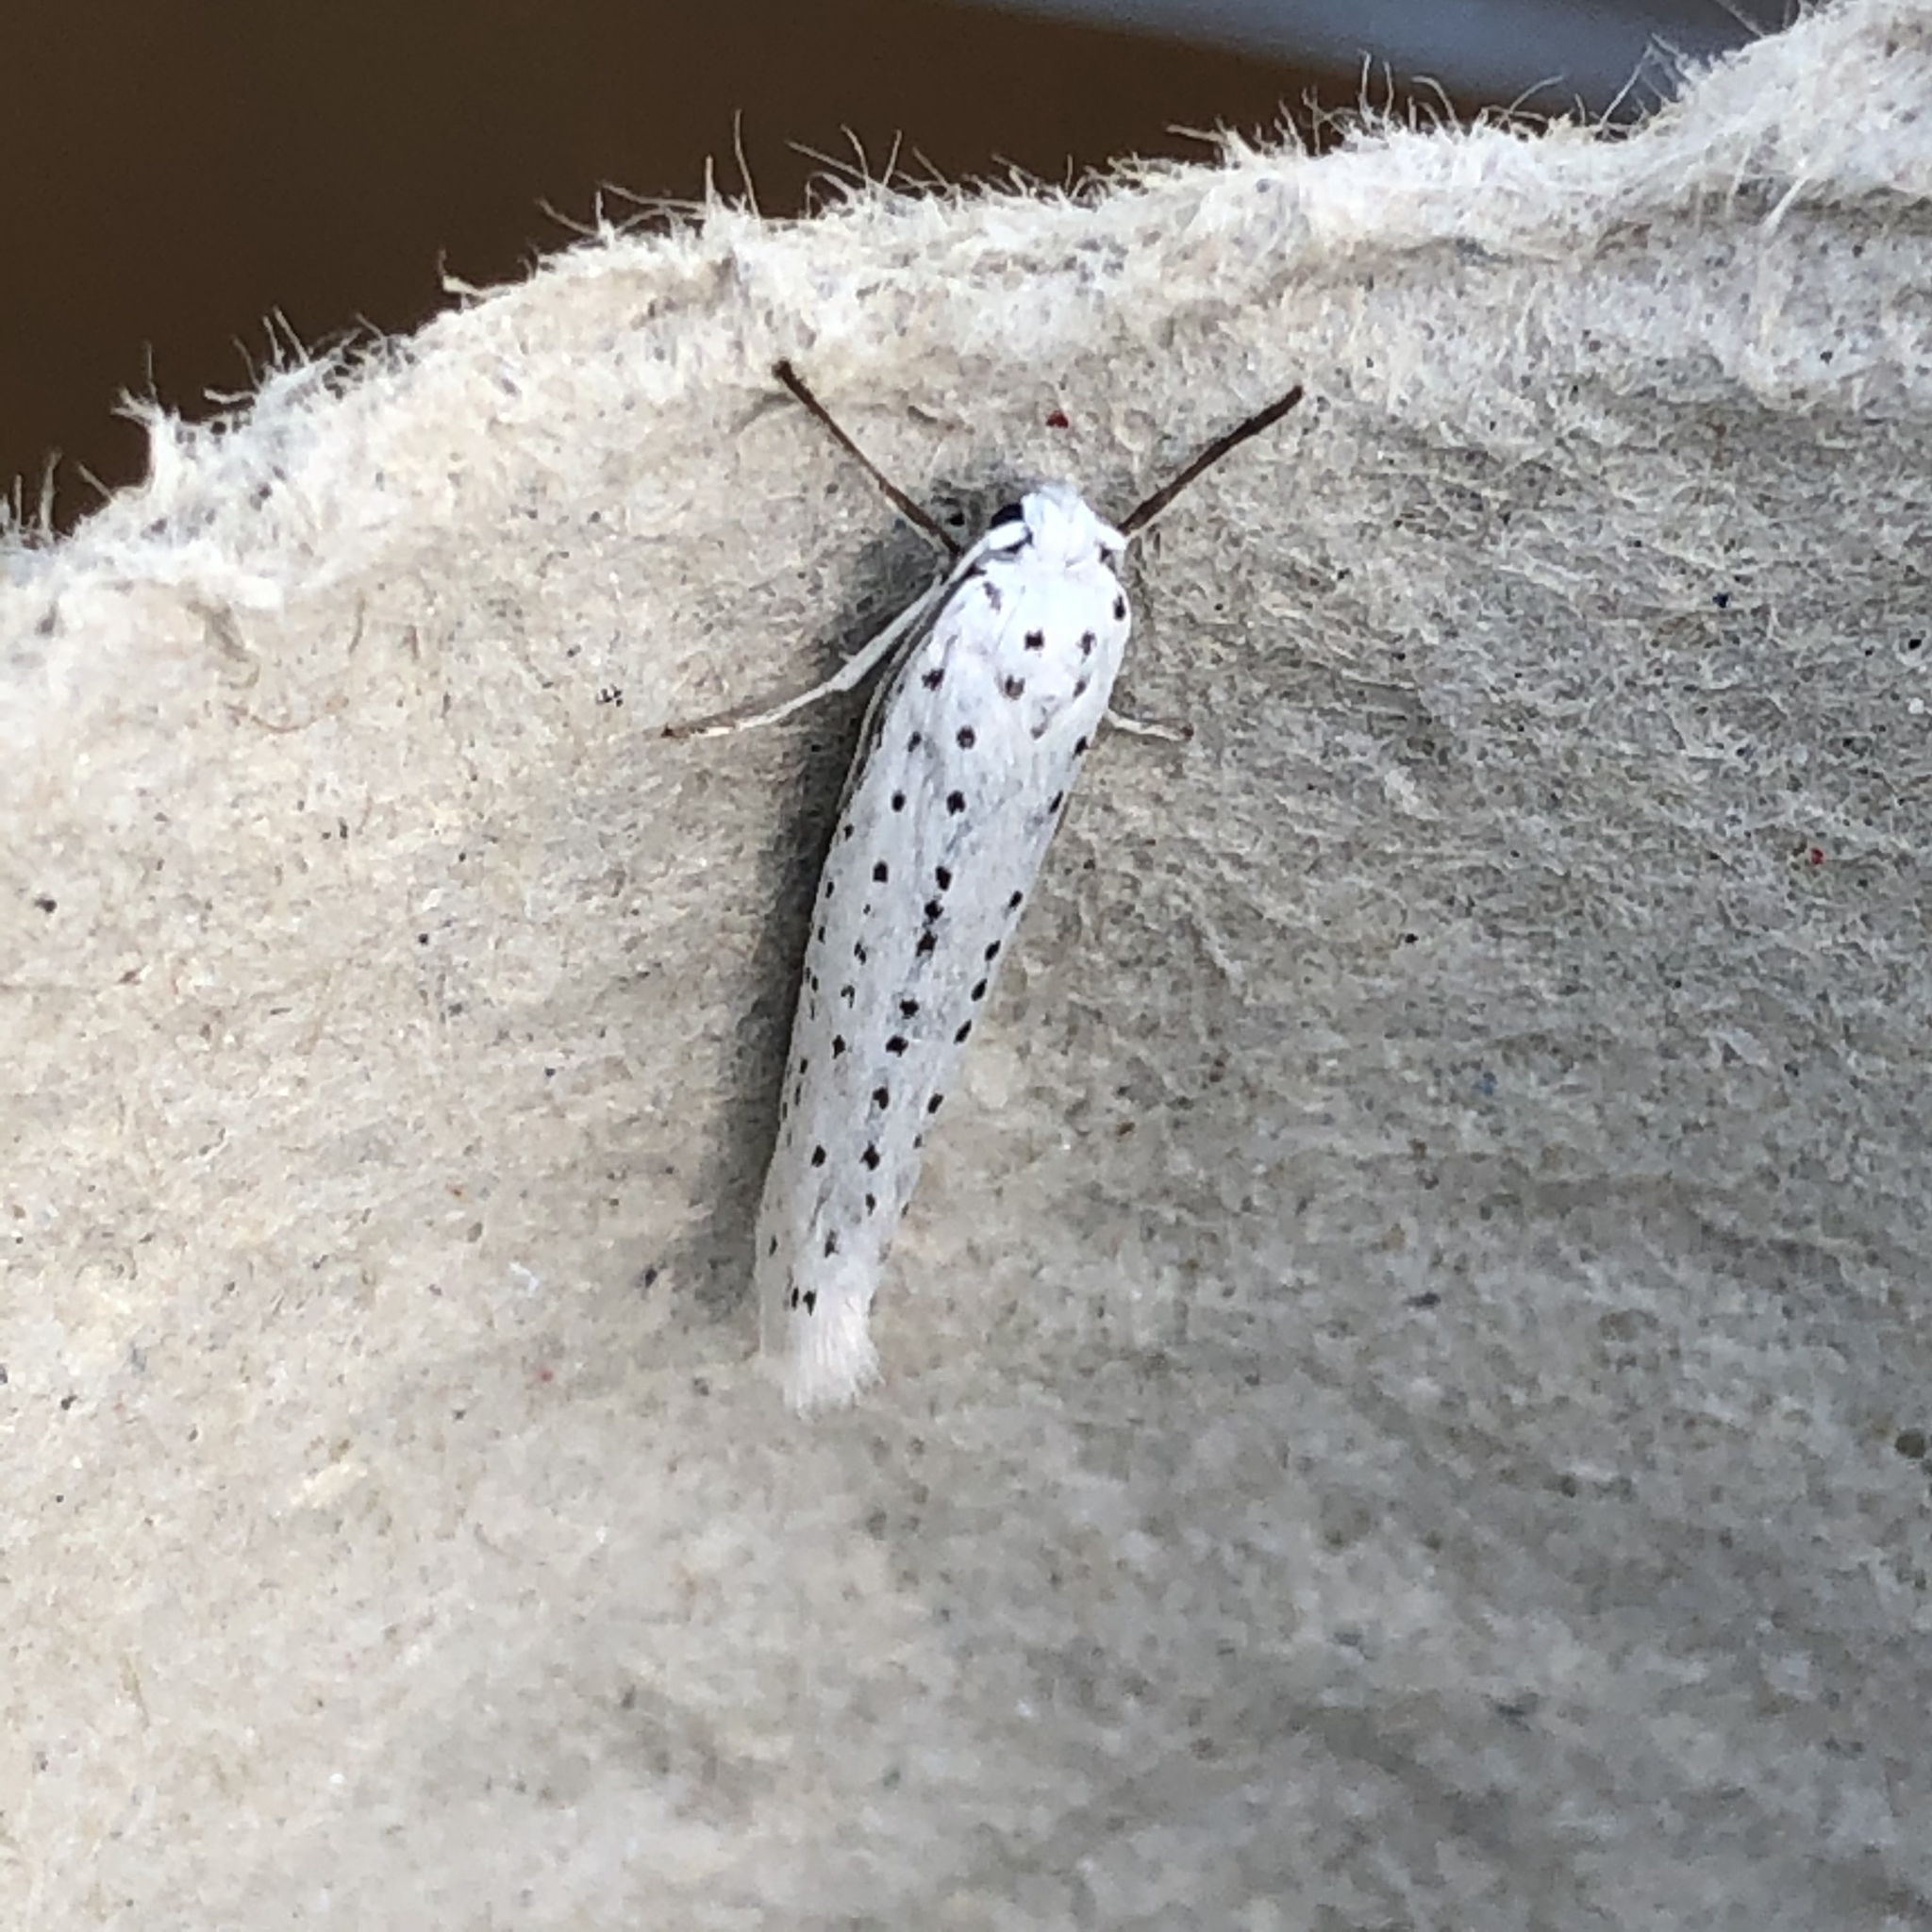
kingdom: Animalia
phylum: Arthropoda
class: Insecta
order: Lepidoptera
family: Yponomeutidae
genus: Yponomeuta
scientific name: Yponomeuta evonymella
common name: Bird-cherry ermine
